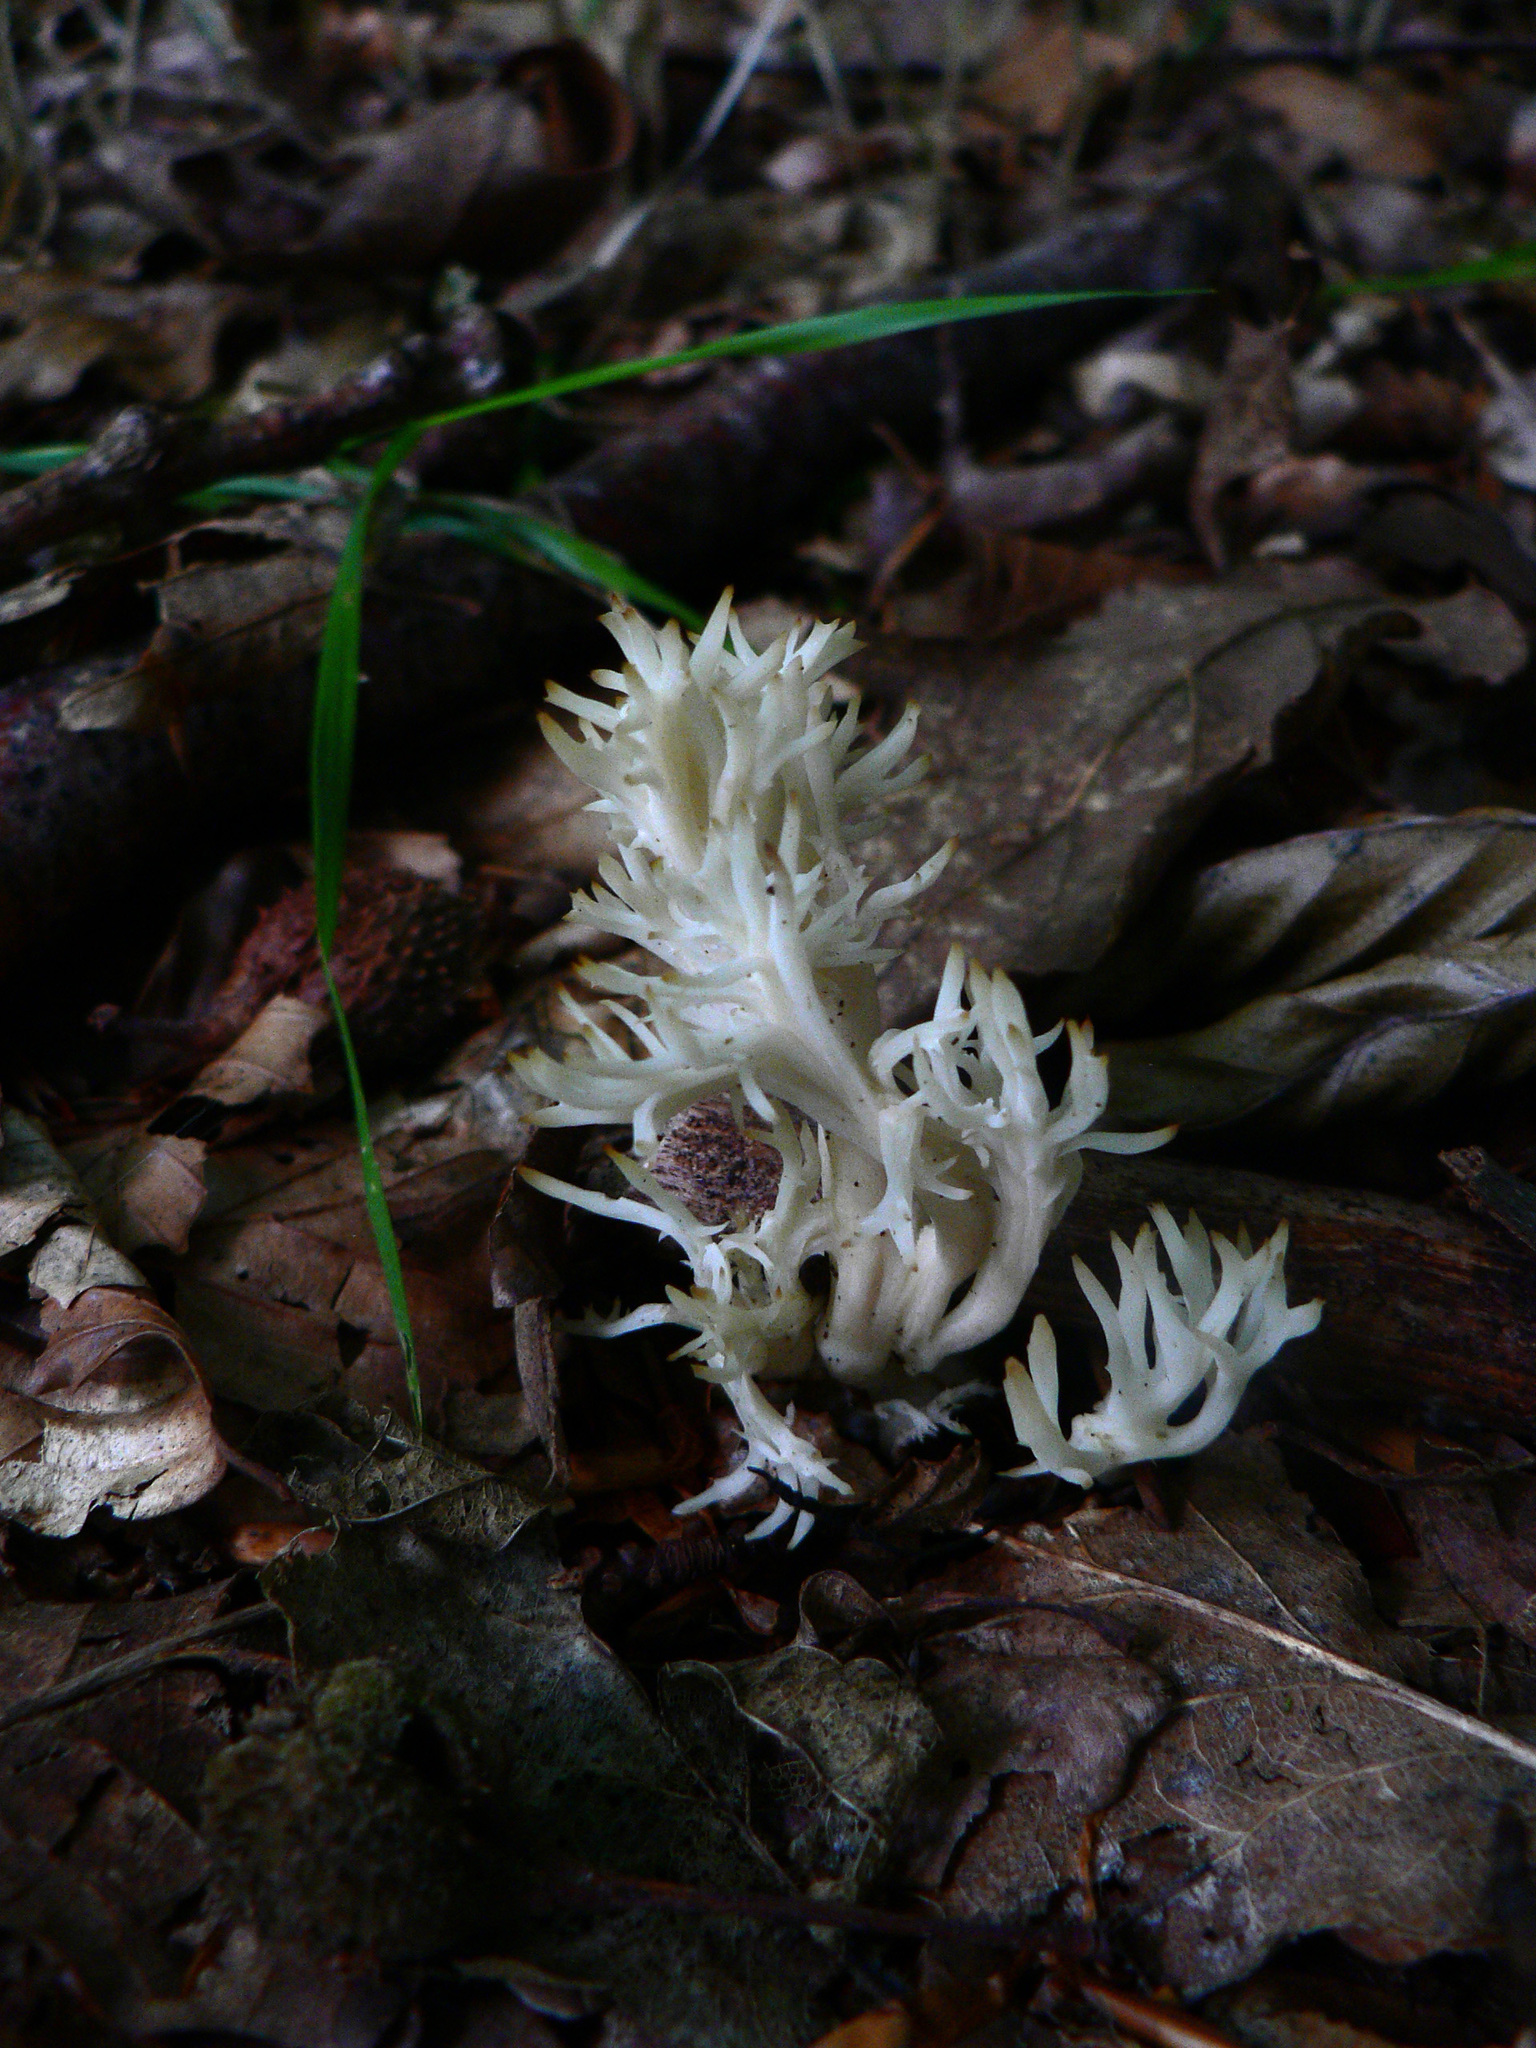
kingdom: Fungi
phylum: Basidiomycota
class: Agaricomycetes
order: Cantharellales
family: Hydnaceae
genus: Clavulina
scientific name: Clavulina coralloides
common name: Crested coral
